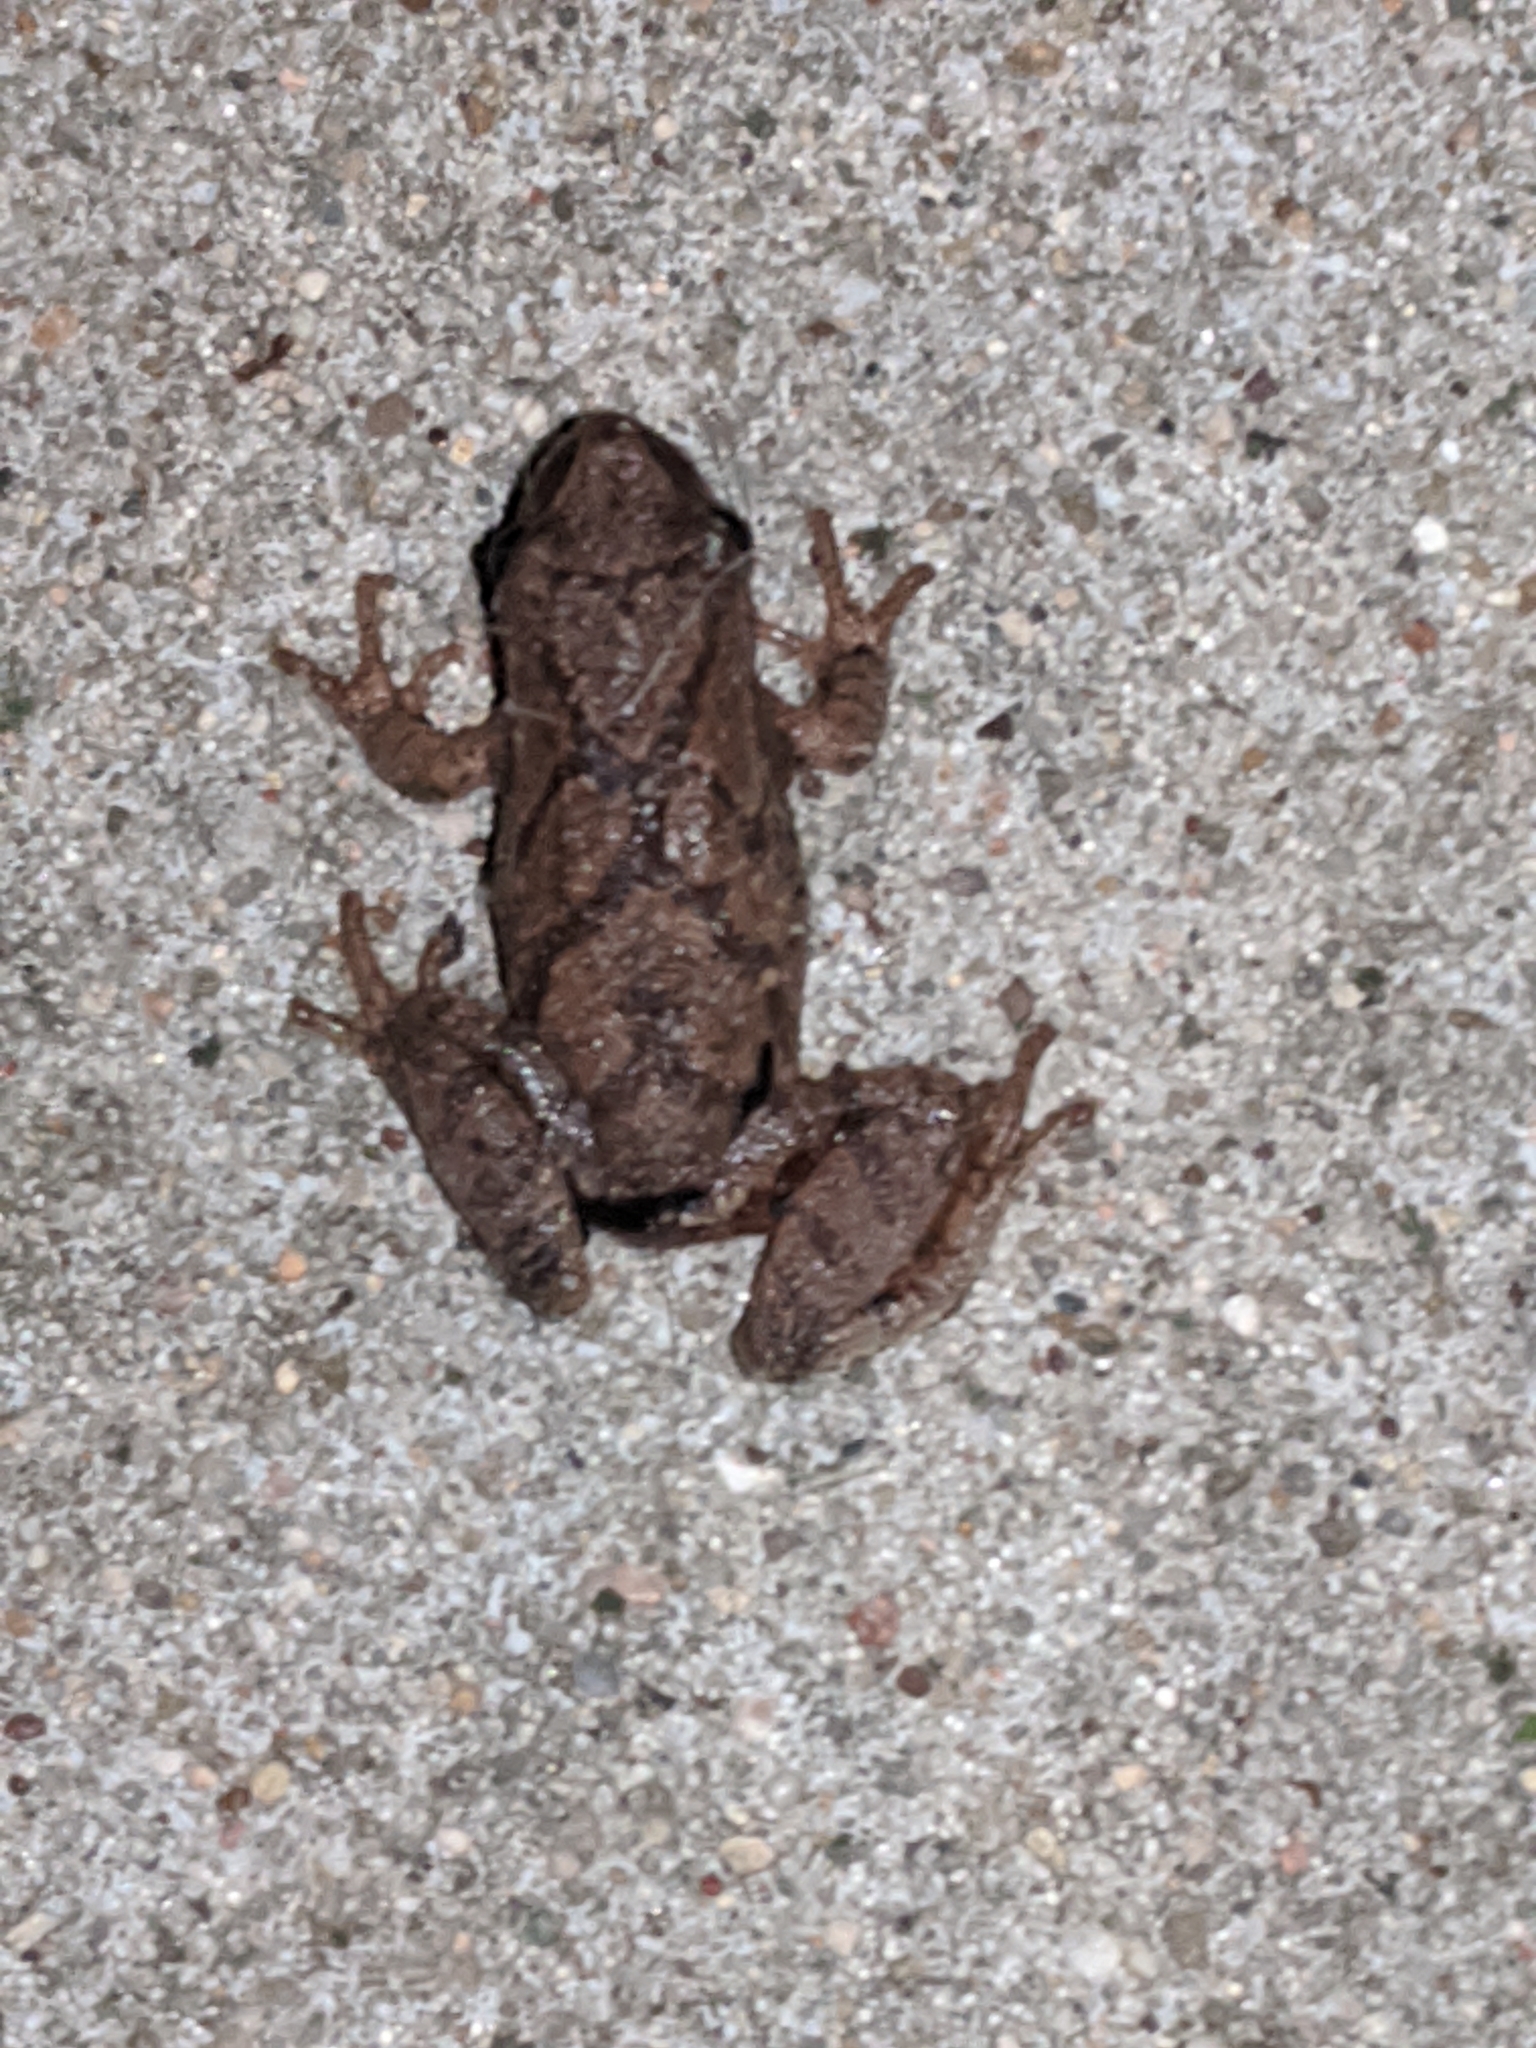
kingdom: Animalia
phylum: Chordata
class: Amphibia
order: Anura
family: Hylidae
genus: Pseudacris
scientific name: Pseudacris crucifer
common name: Spring peeper
